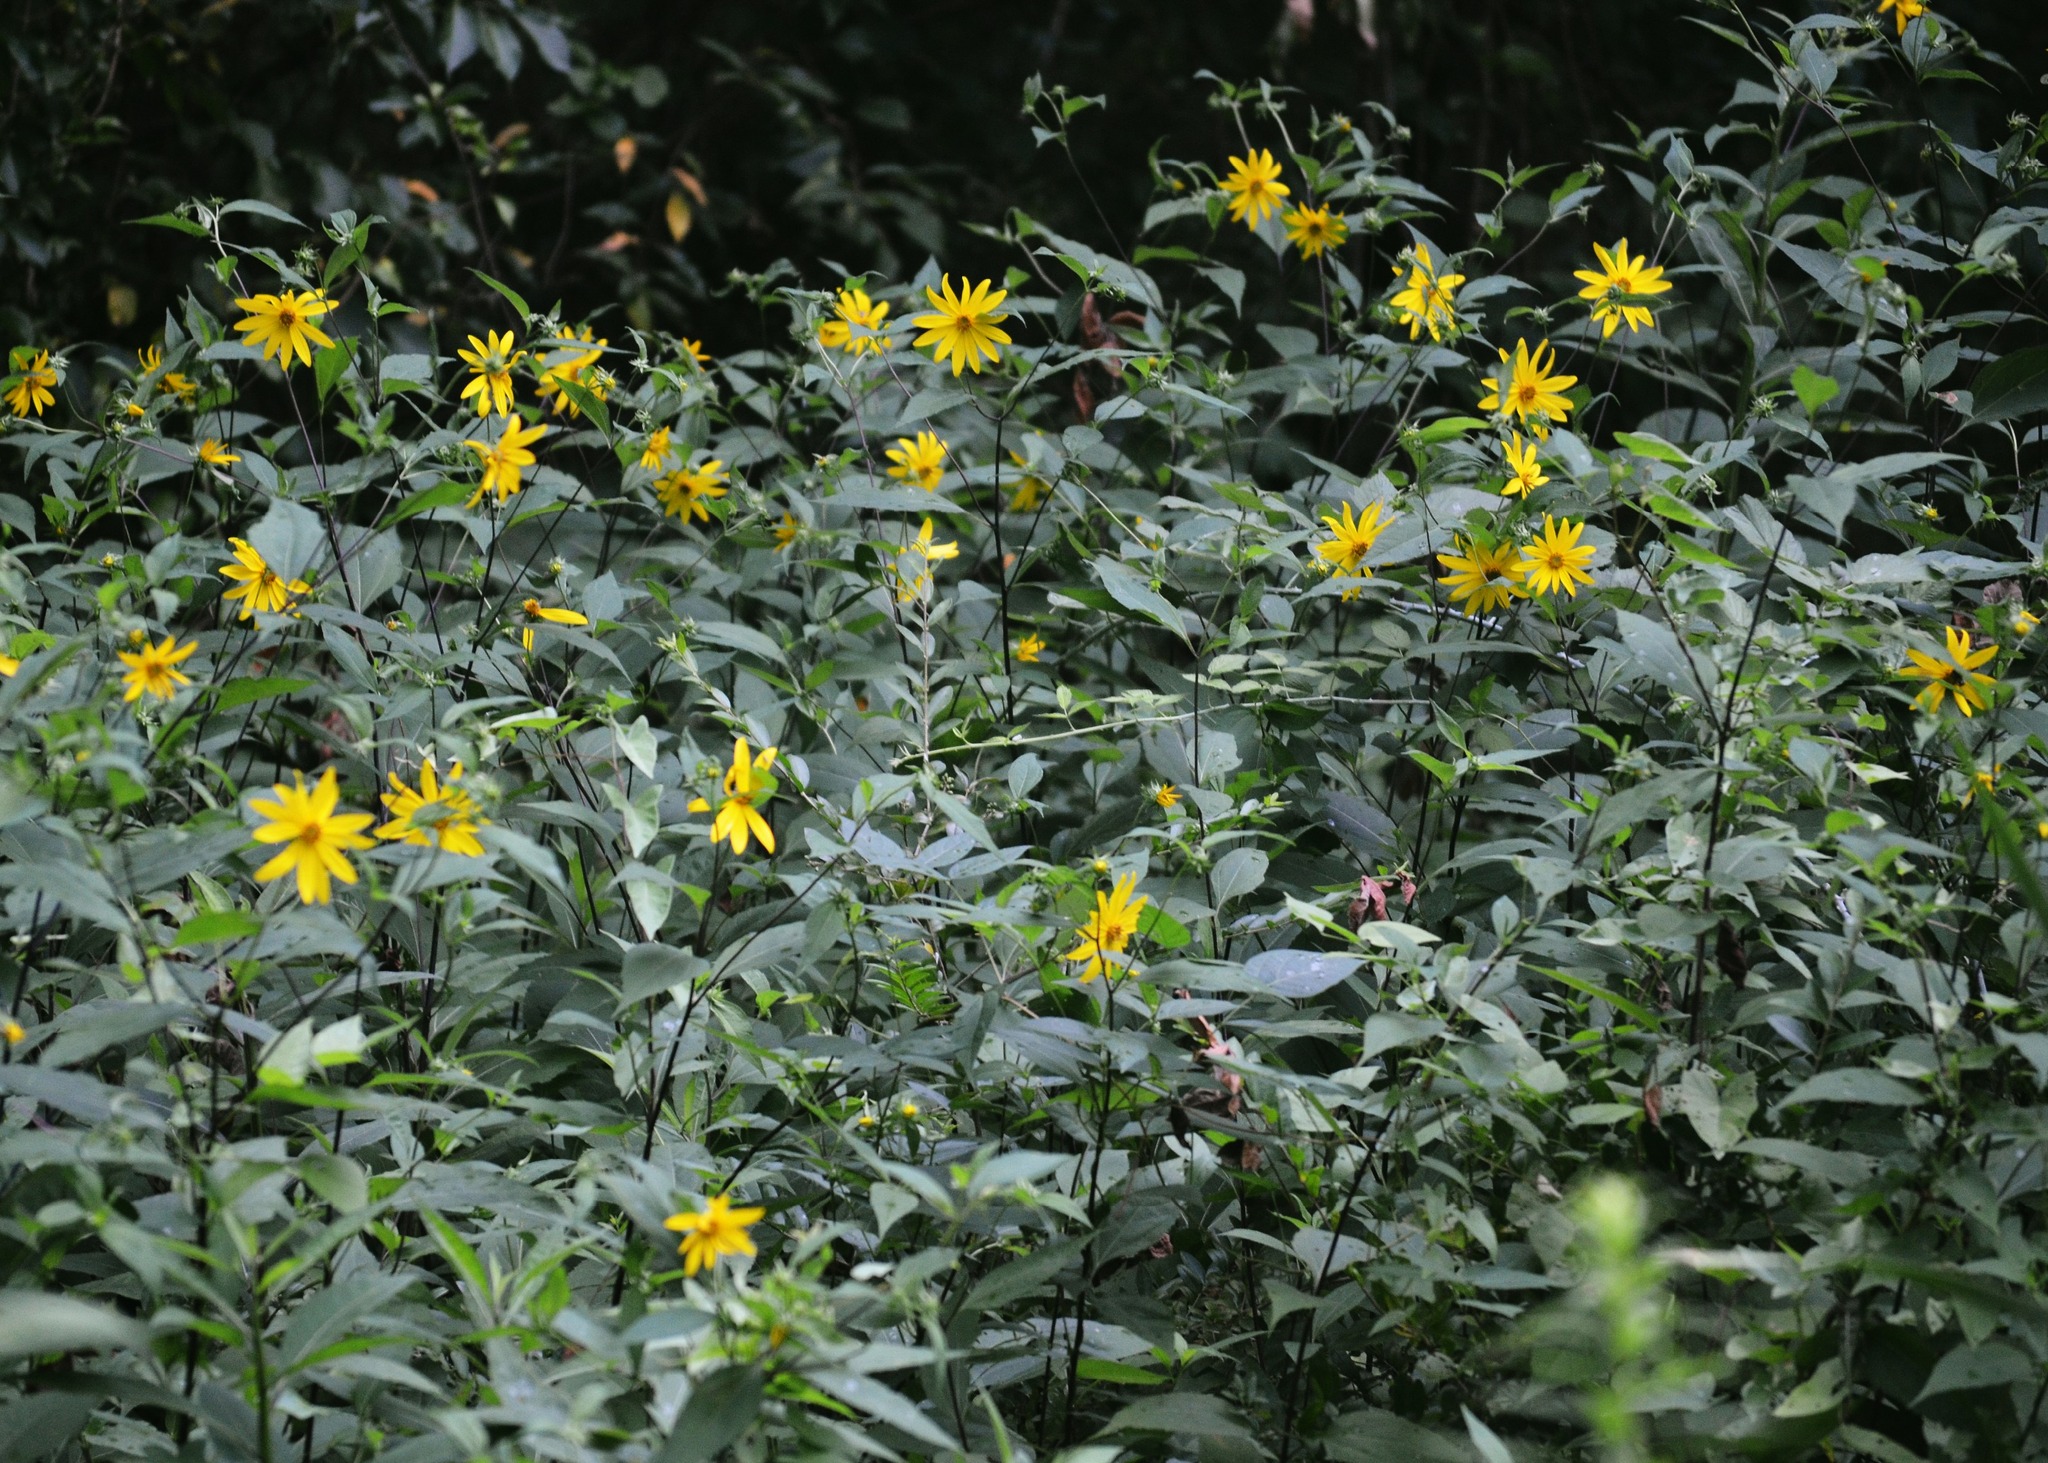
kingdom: Plantae
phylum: Tracheophyta
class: Magnoliopsida
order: Asterales
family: Asteraceae
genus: Helianthus
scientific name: Helianthus tuberosus
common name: Jerusalem artichoke
